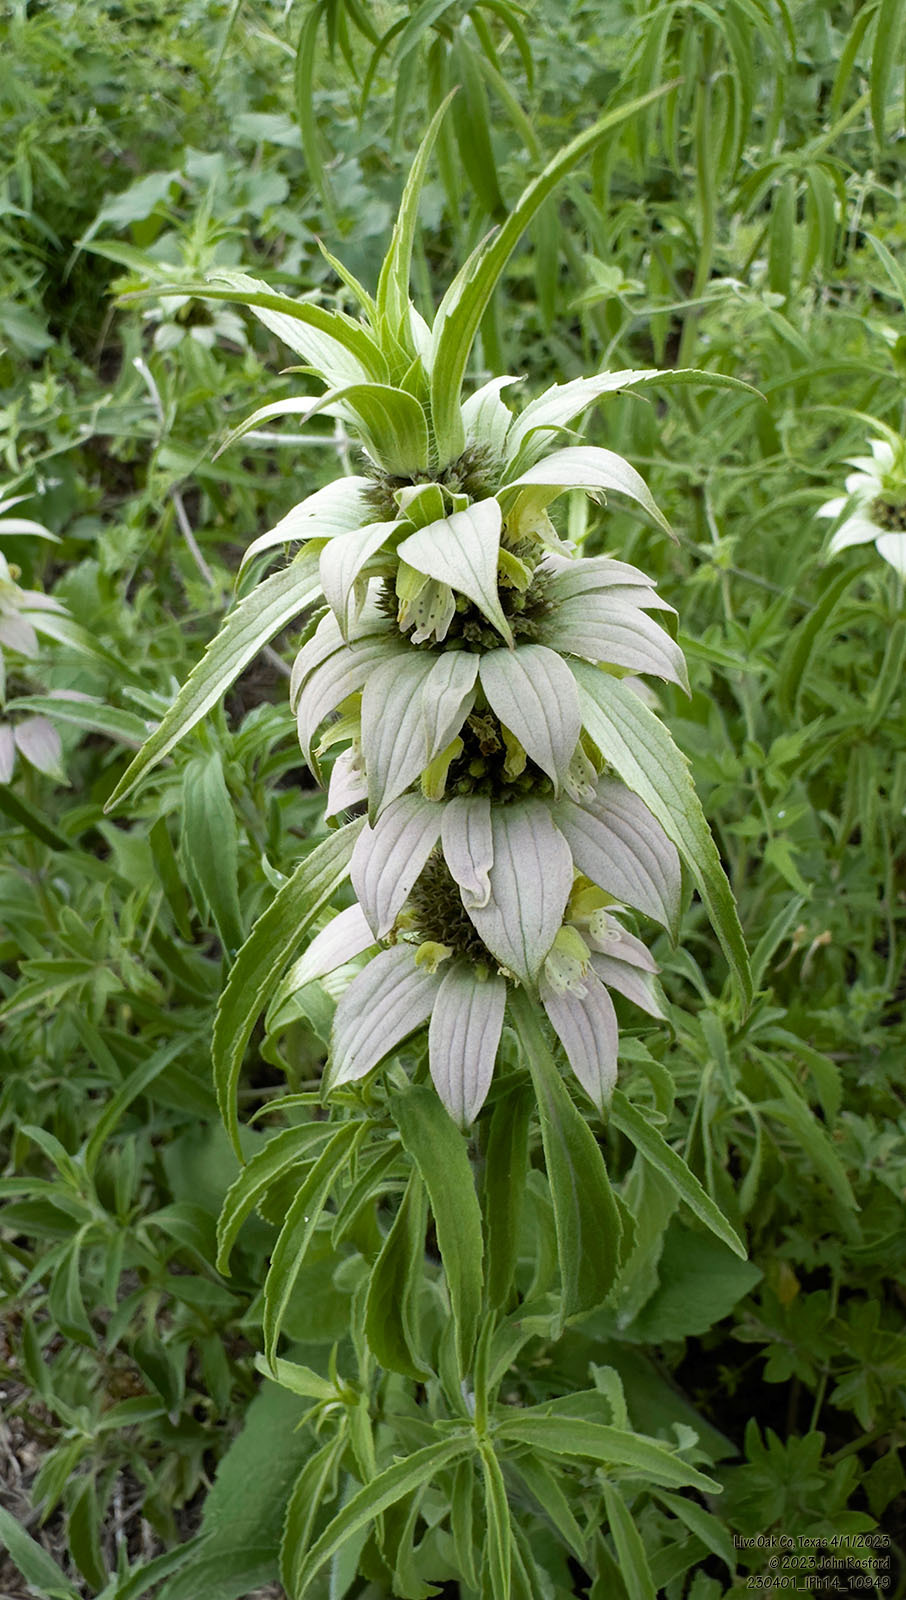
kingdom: Plantae
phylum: Tracheophyta
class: Magnoliopsida
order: Lamiales
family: Lamiaceae
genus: Monarda
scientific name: Monarda punctata
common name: Dotted monarda
